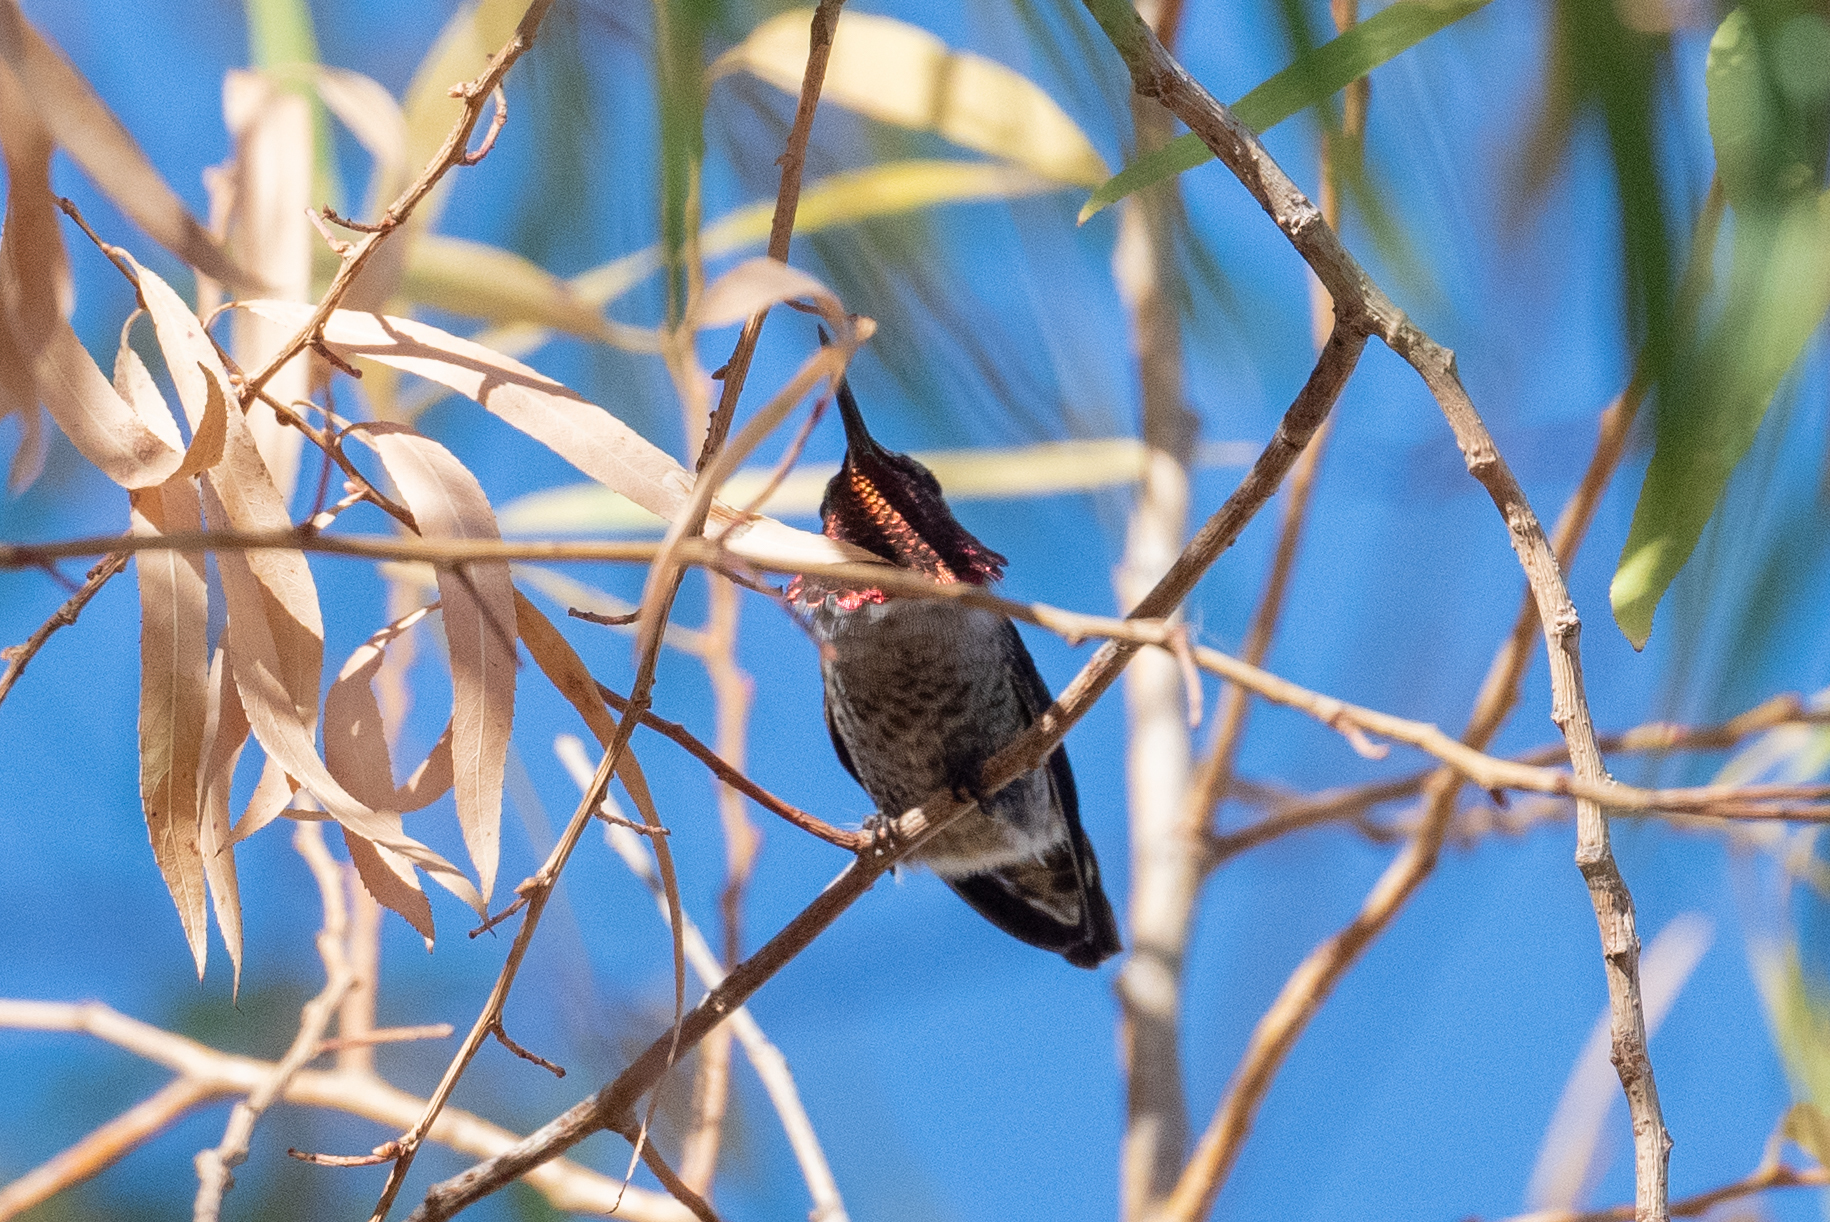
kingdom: Animalia
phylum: Chordata
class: Aves
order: Apodiformes
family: Trochilidae
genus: Calypte
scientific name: Calypte anna
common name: Anna's hummingbird
